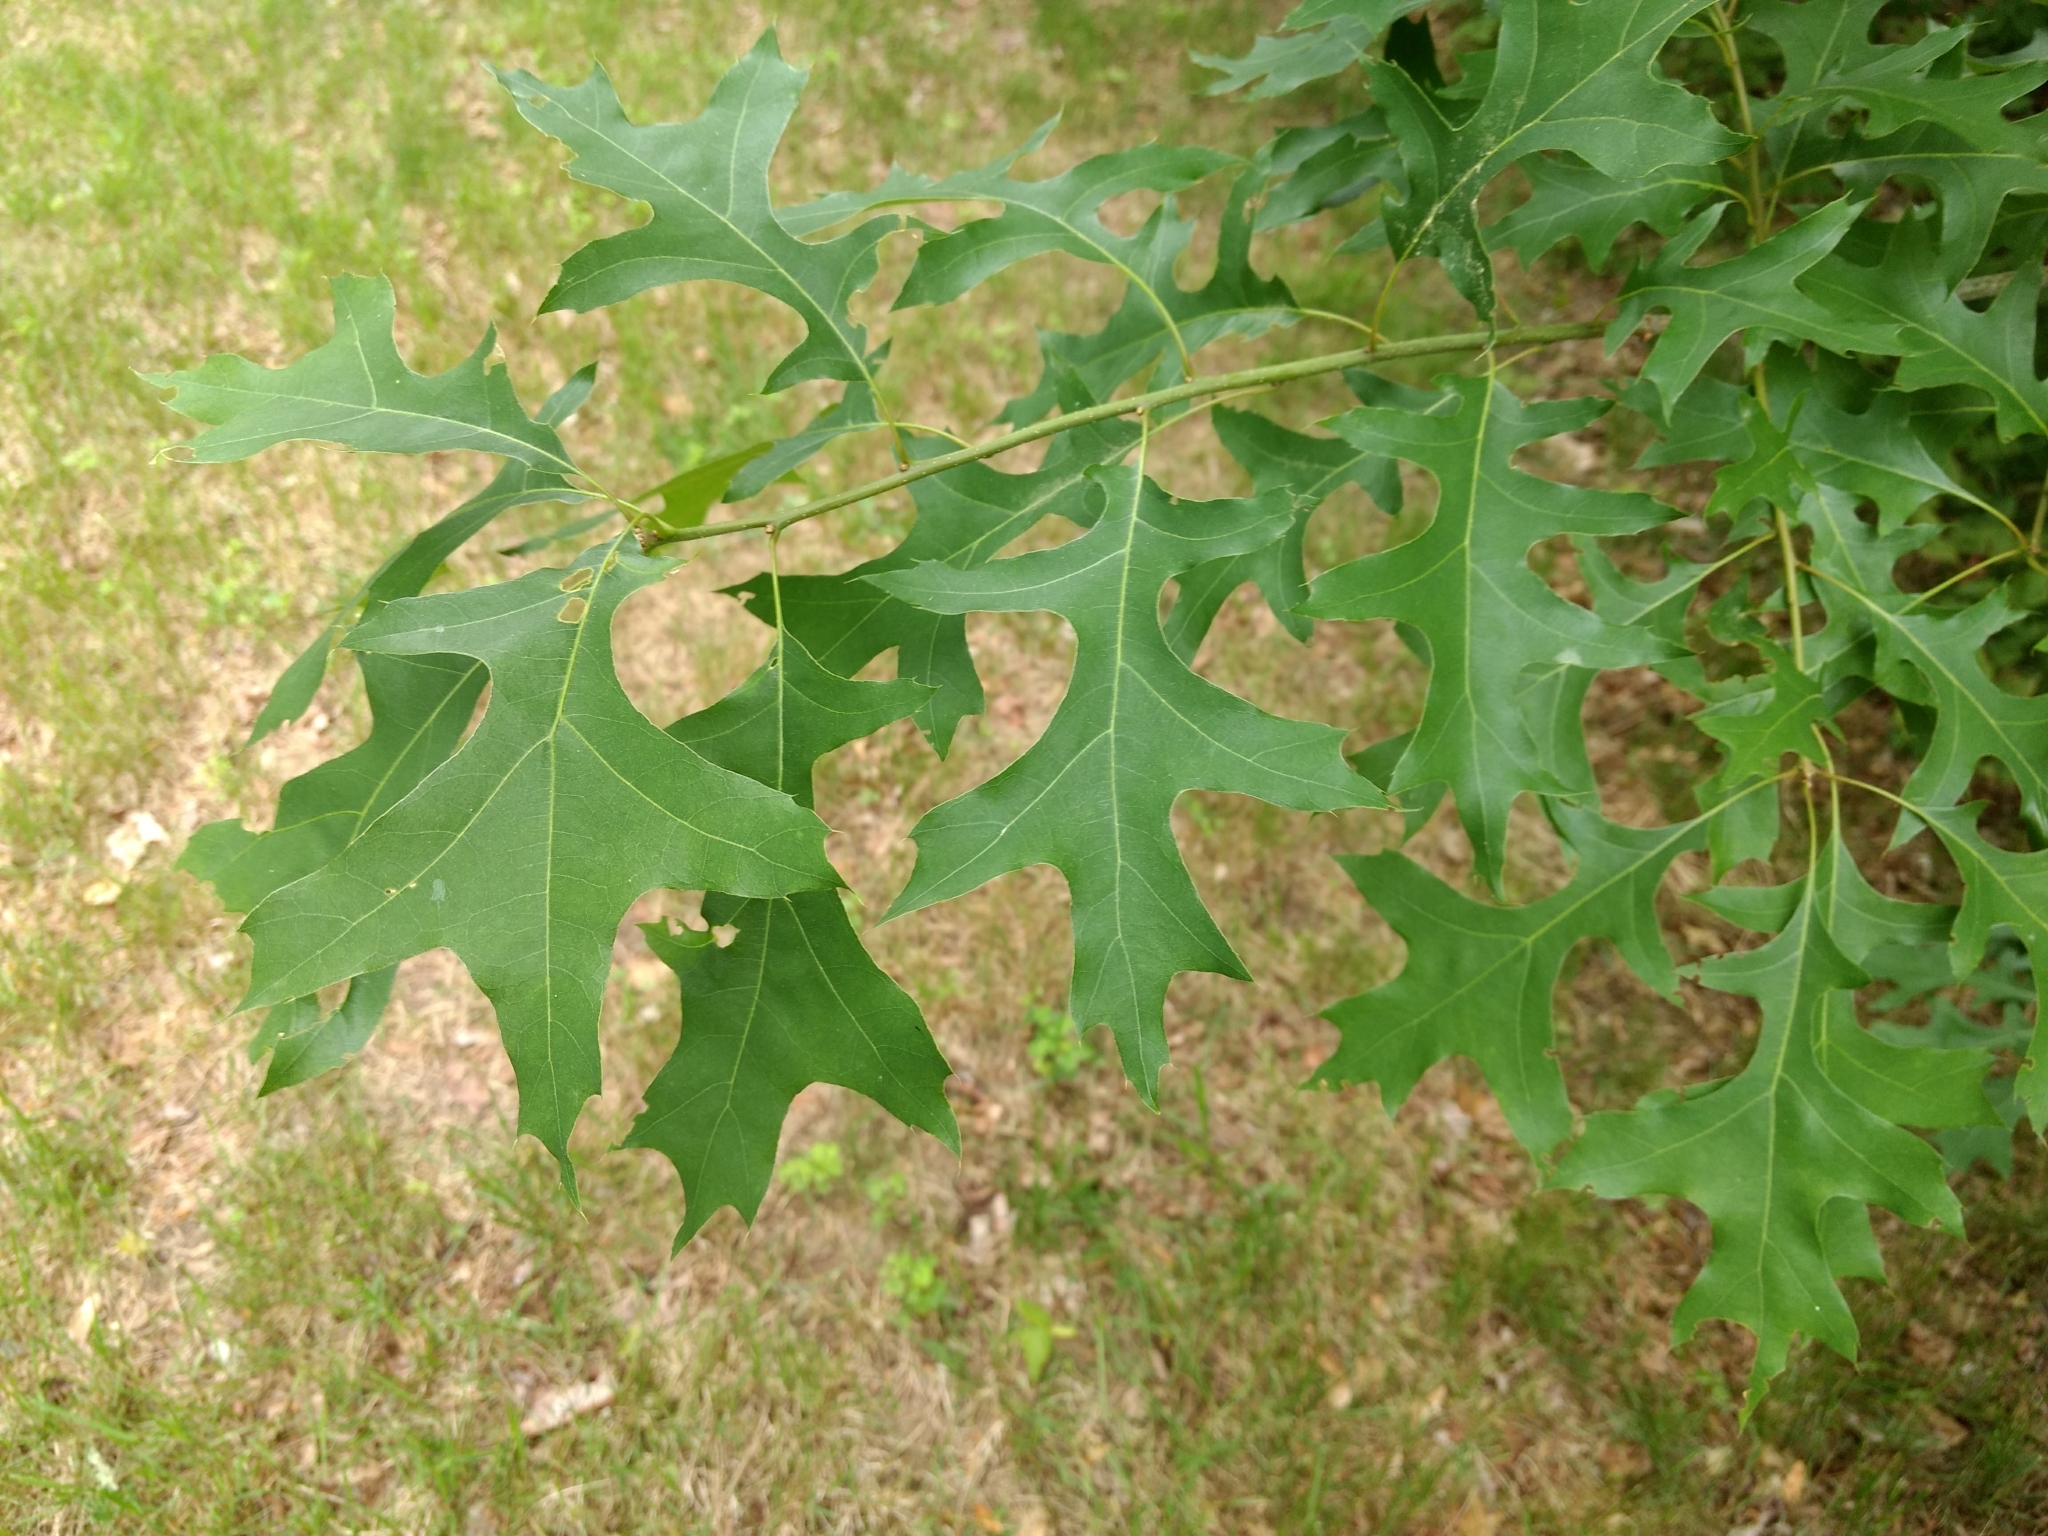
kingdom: Plantae
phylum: Tracheophyta
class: Magnoliopsida
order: Fagales
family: Fagaceae
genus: Quercus
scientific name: Quercus palustris
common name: Pin oak
